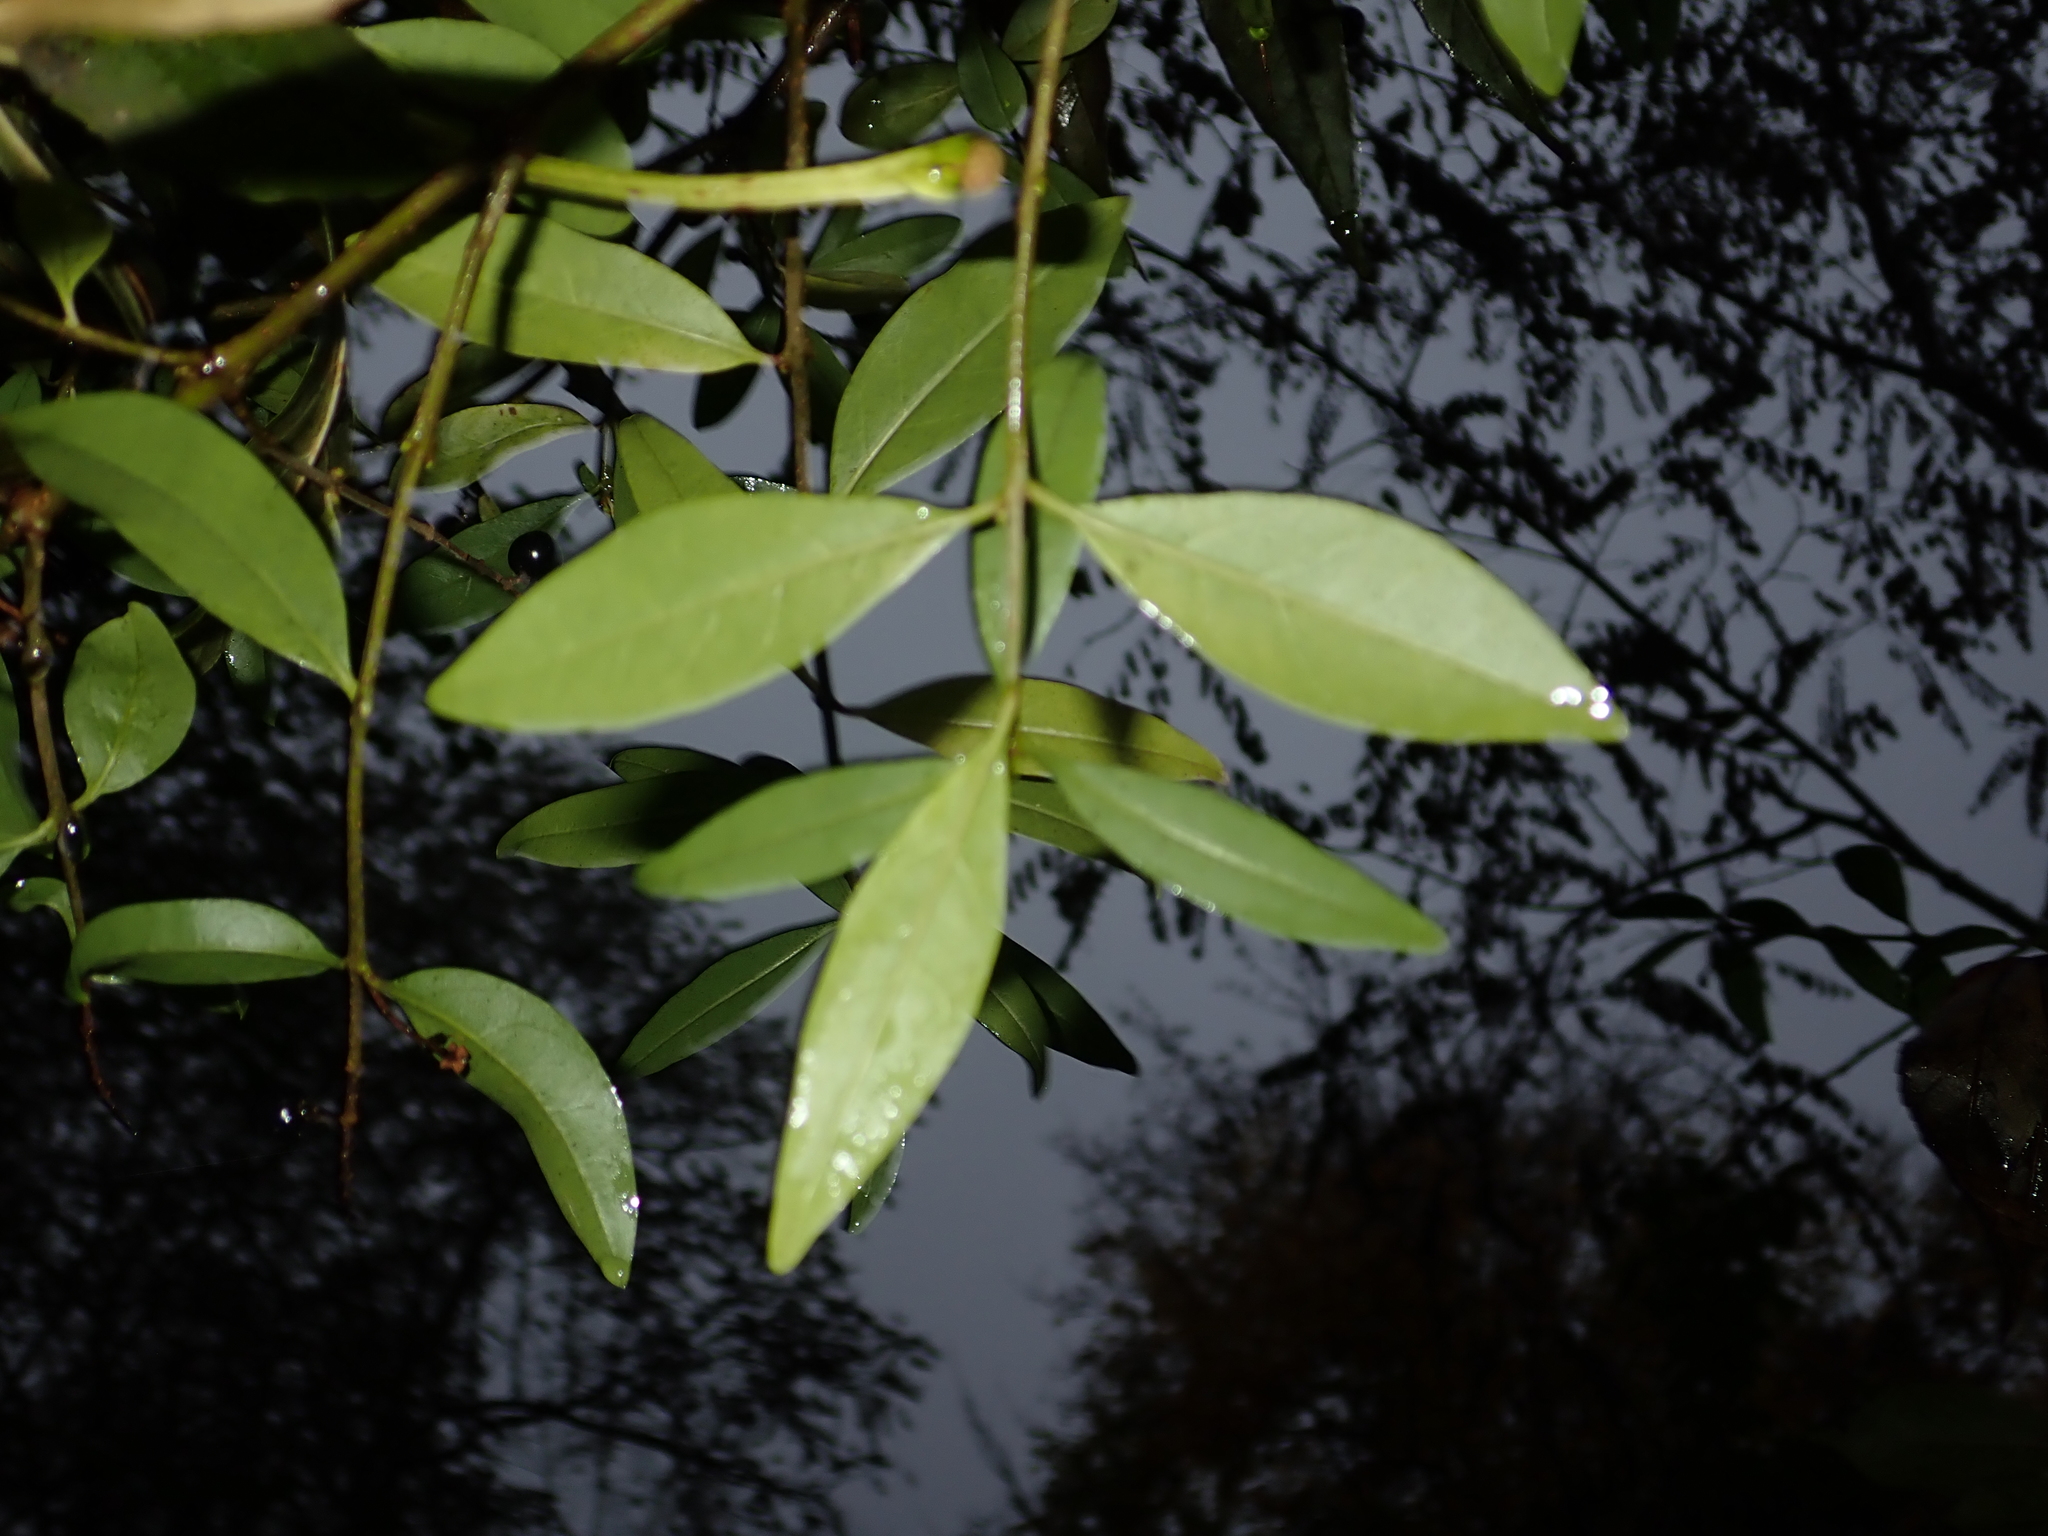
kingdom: Plantae
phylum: Tracheophyta
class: Magnoliopsida
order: Lamiales
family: Oleaceae
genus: Ligustrum
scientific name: Ligustrum vulgare
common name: Wild privet
